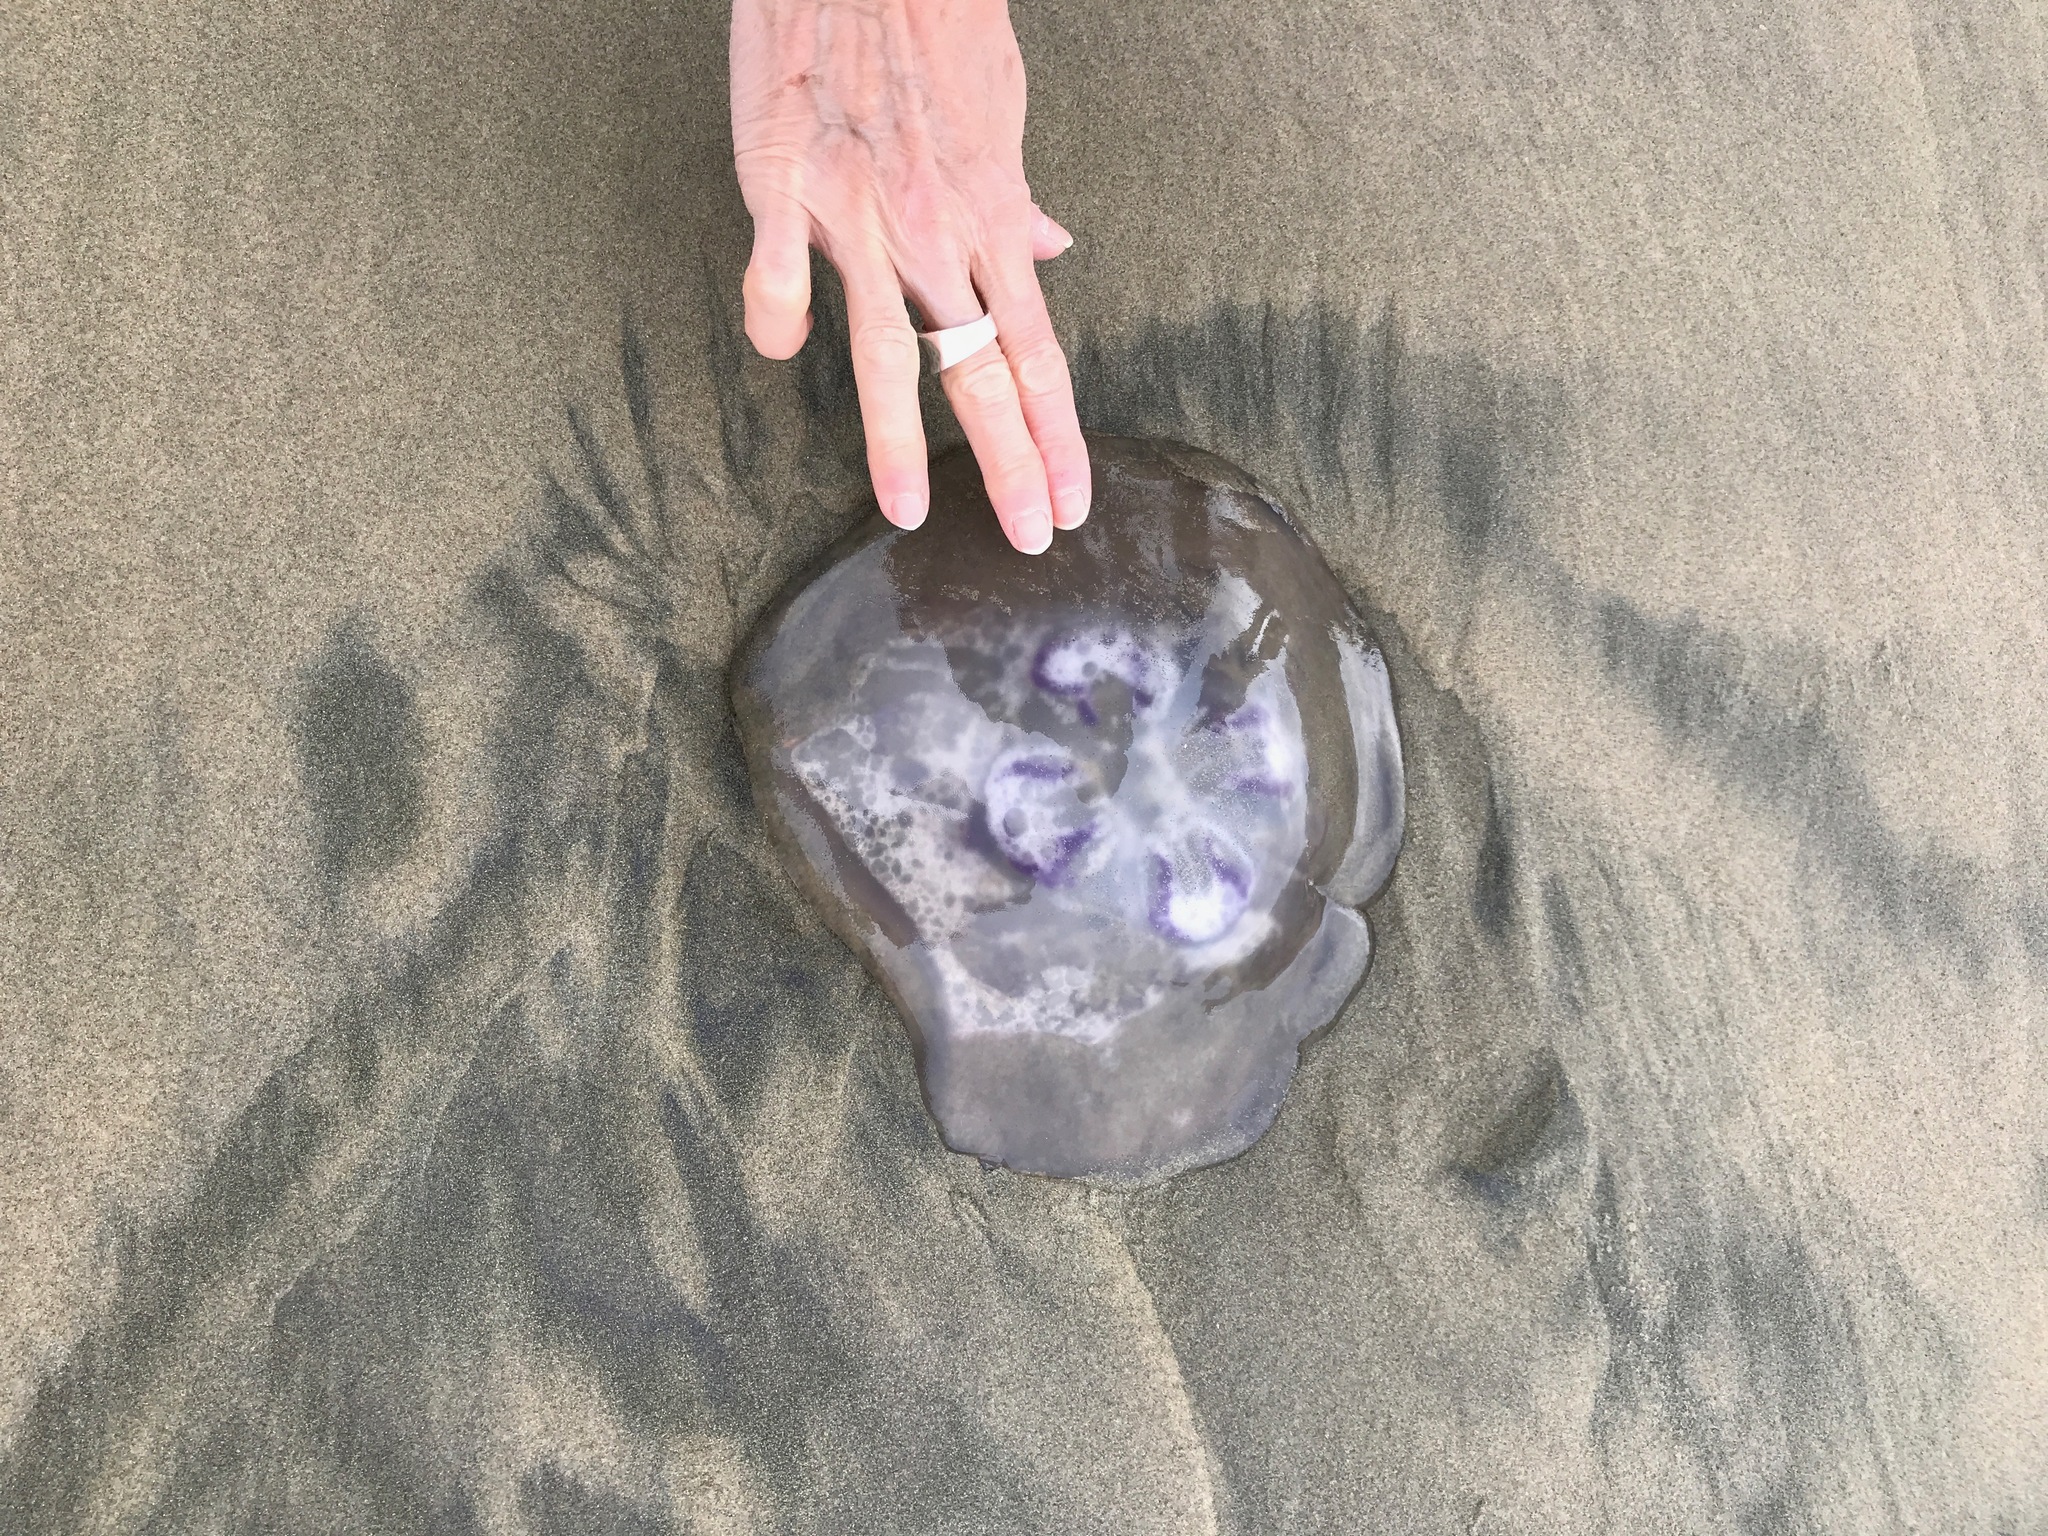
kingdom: Animalia
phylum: Cnidaria
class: Scyphozoa
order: Semaeostomeae
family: Ulmaridae
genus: Aurelia
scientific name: Aurelia labiata
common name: Pacific moon jelly
